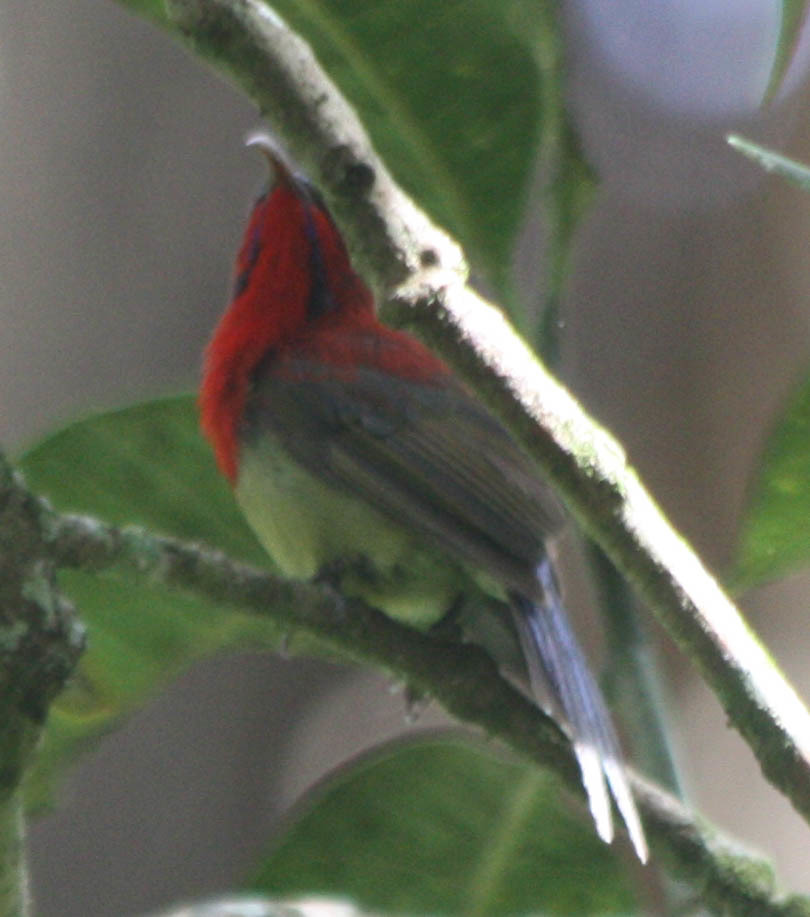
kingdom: Animalia
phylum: Chordata
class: Aves
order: Passeriformes
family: Nectariniidae
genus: Aethopyga
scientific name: Aethopyga siparaja
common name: Crimson sunbird
